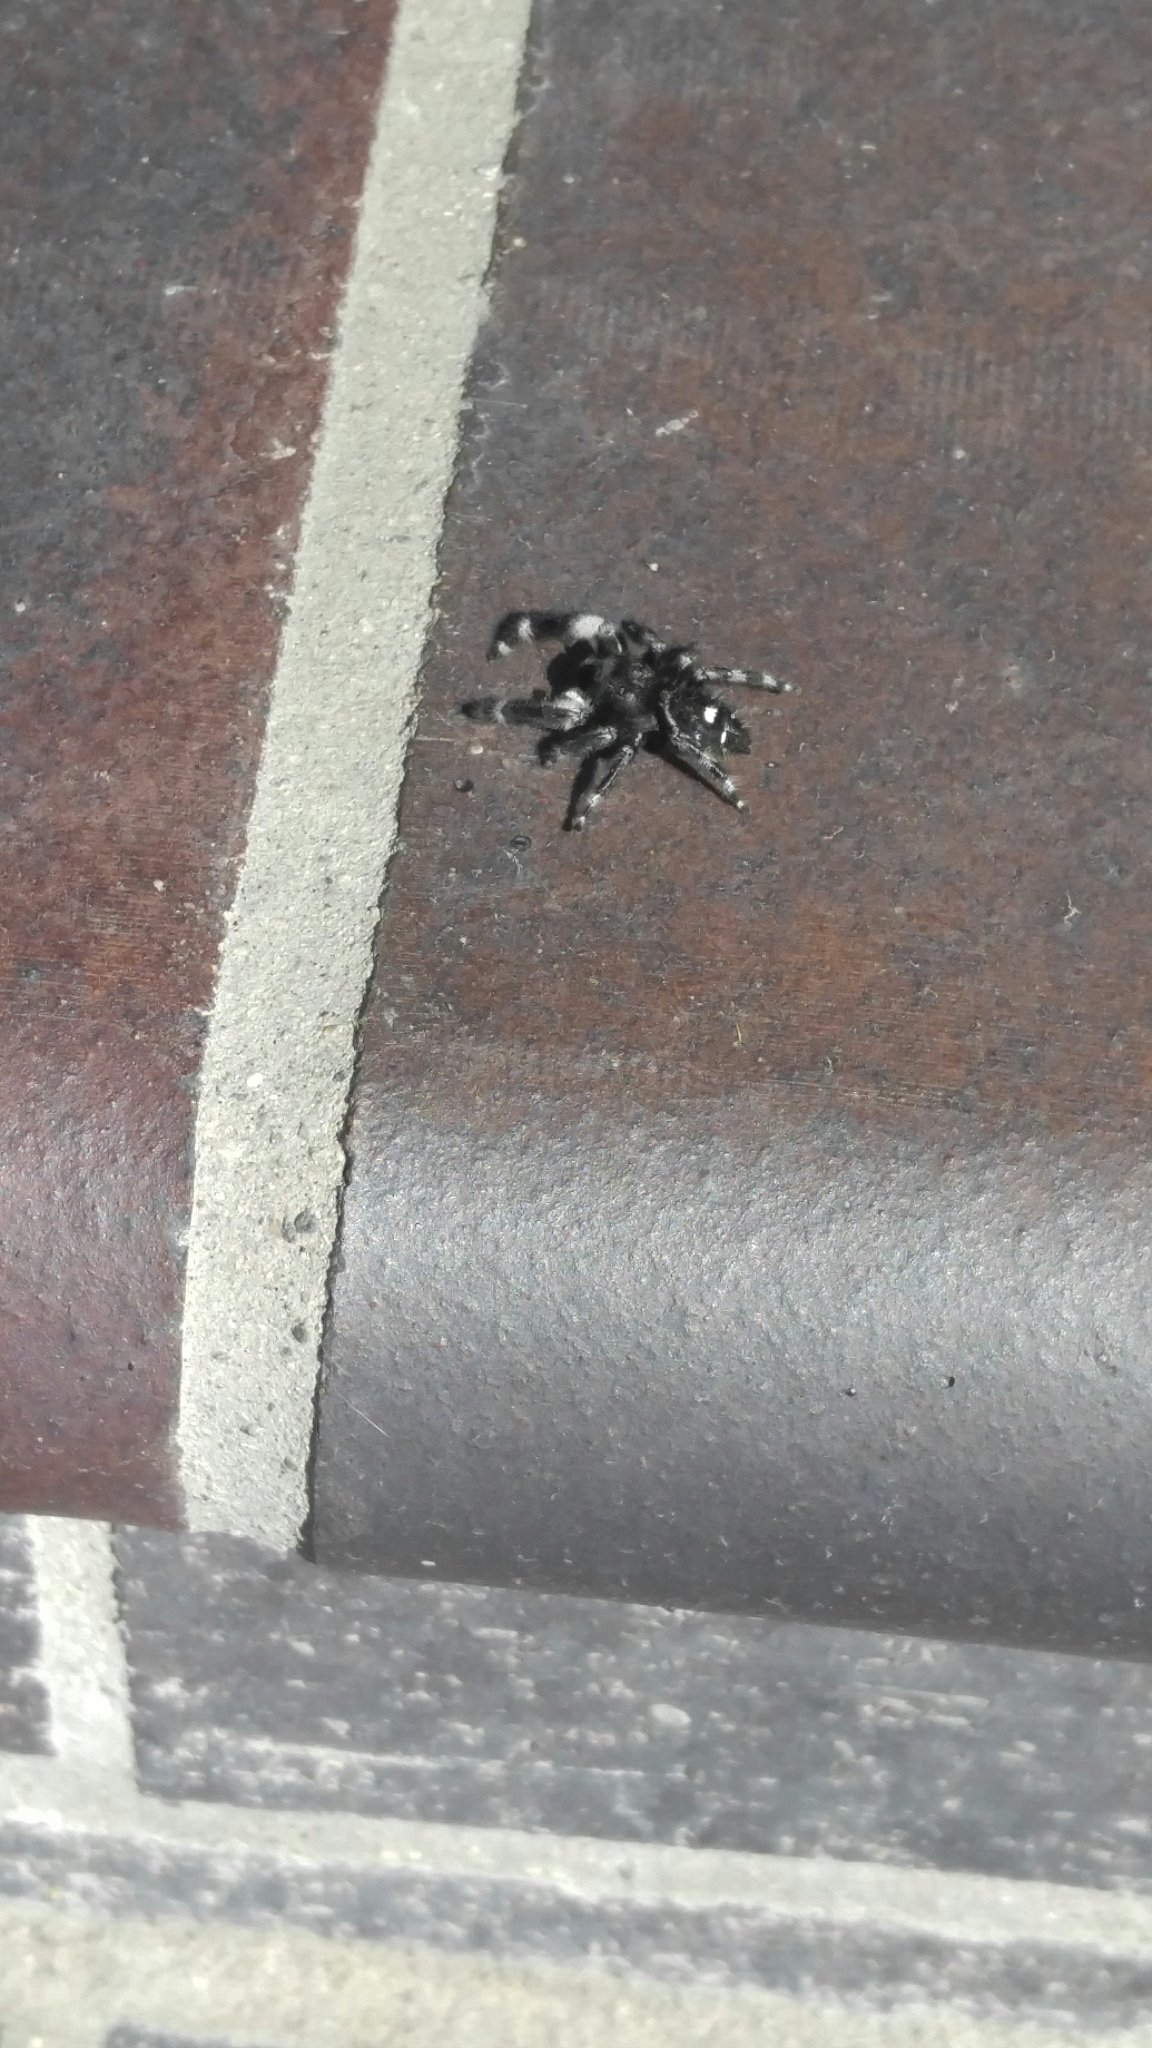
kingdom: Animalia
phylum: Arthropoda
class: Arachnida
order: Araneae
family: Salticidae
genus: Phidippus
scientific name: Phidippus audax
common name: Bold jumper
